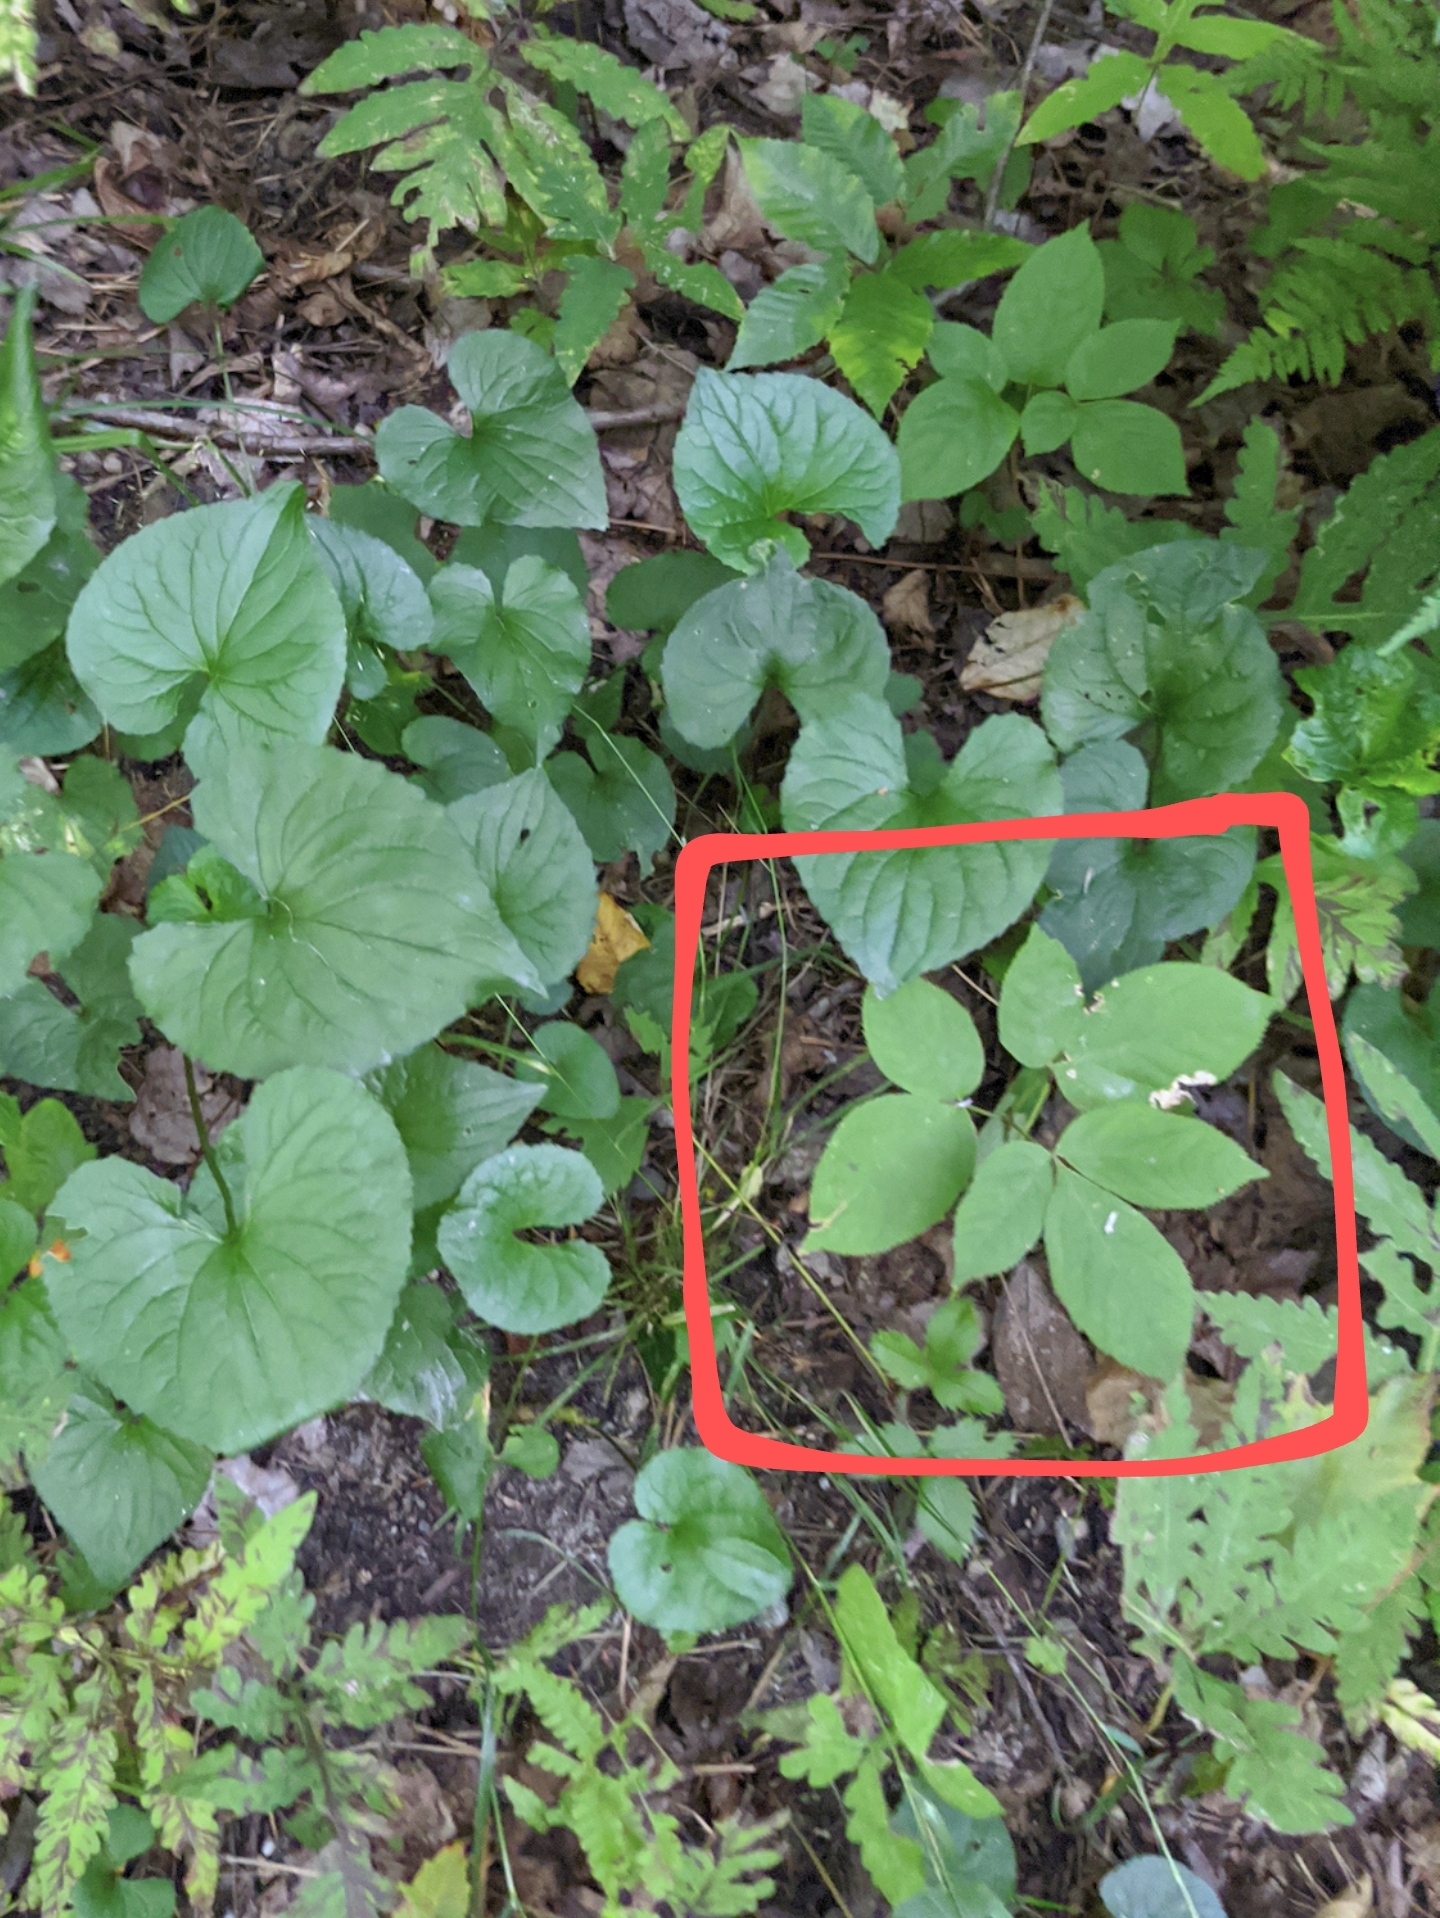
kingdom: Plantae
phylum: Tracheophyta
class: Magnoliopsida
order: Apiales
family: Araliaceae
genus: Aralia
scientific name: Aralia nudicaulis
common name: Wild sarsaparilla
